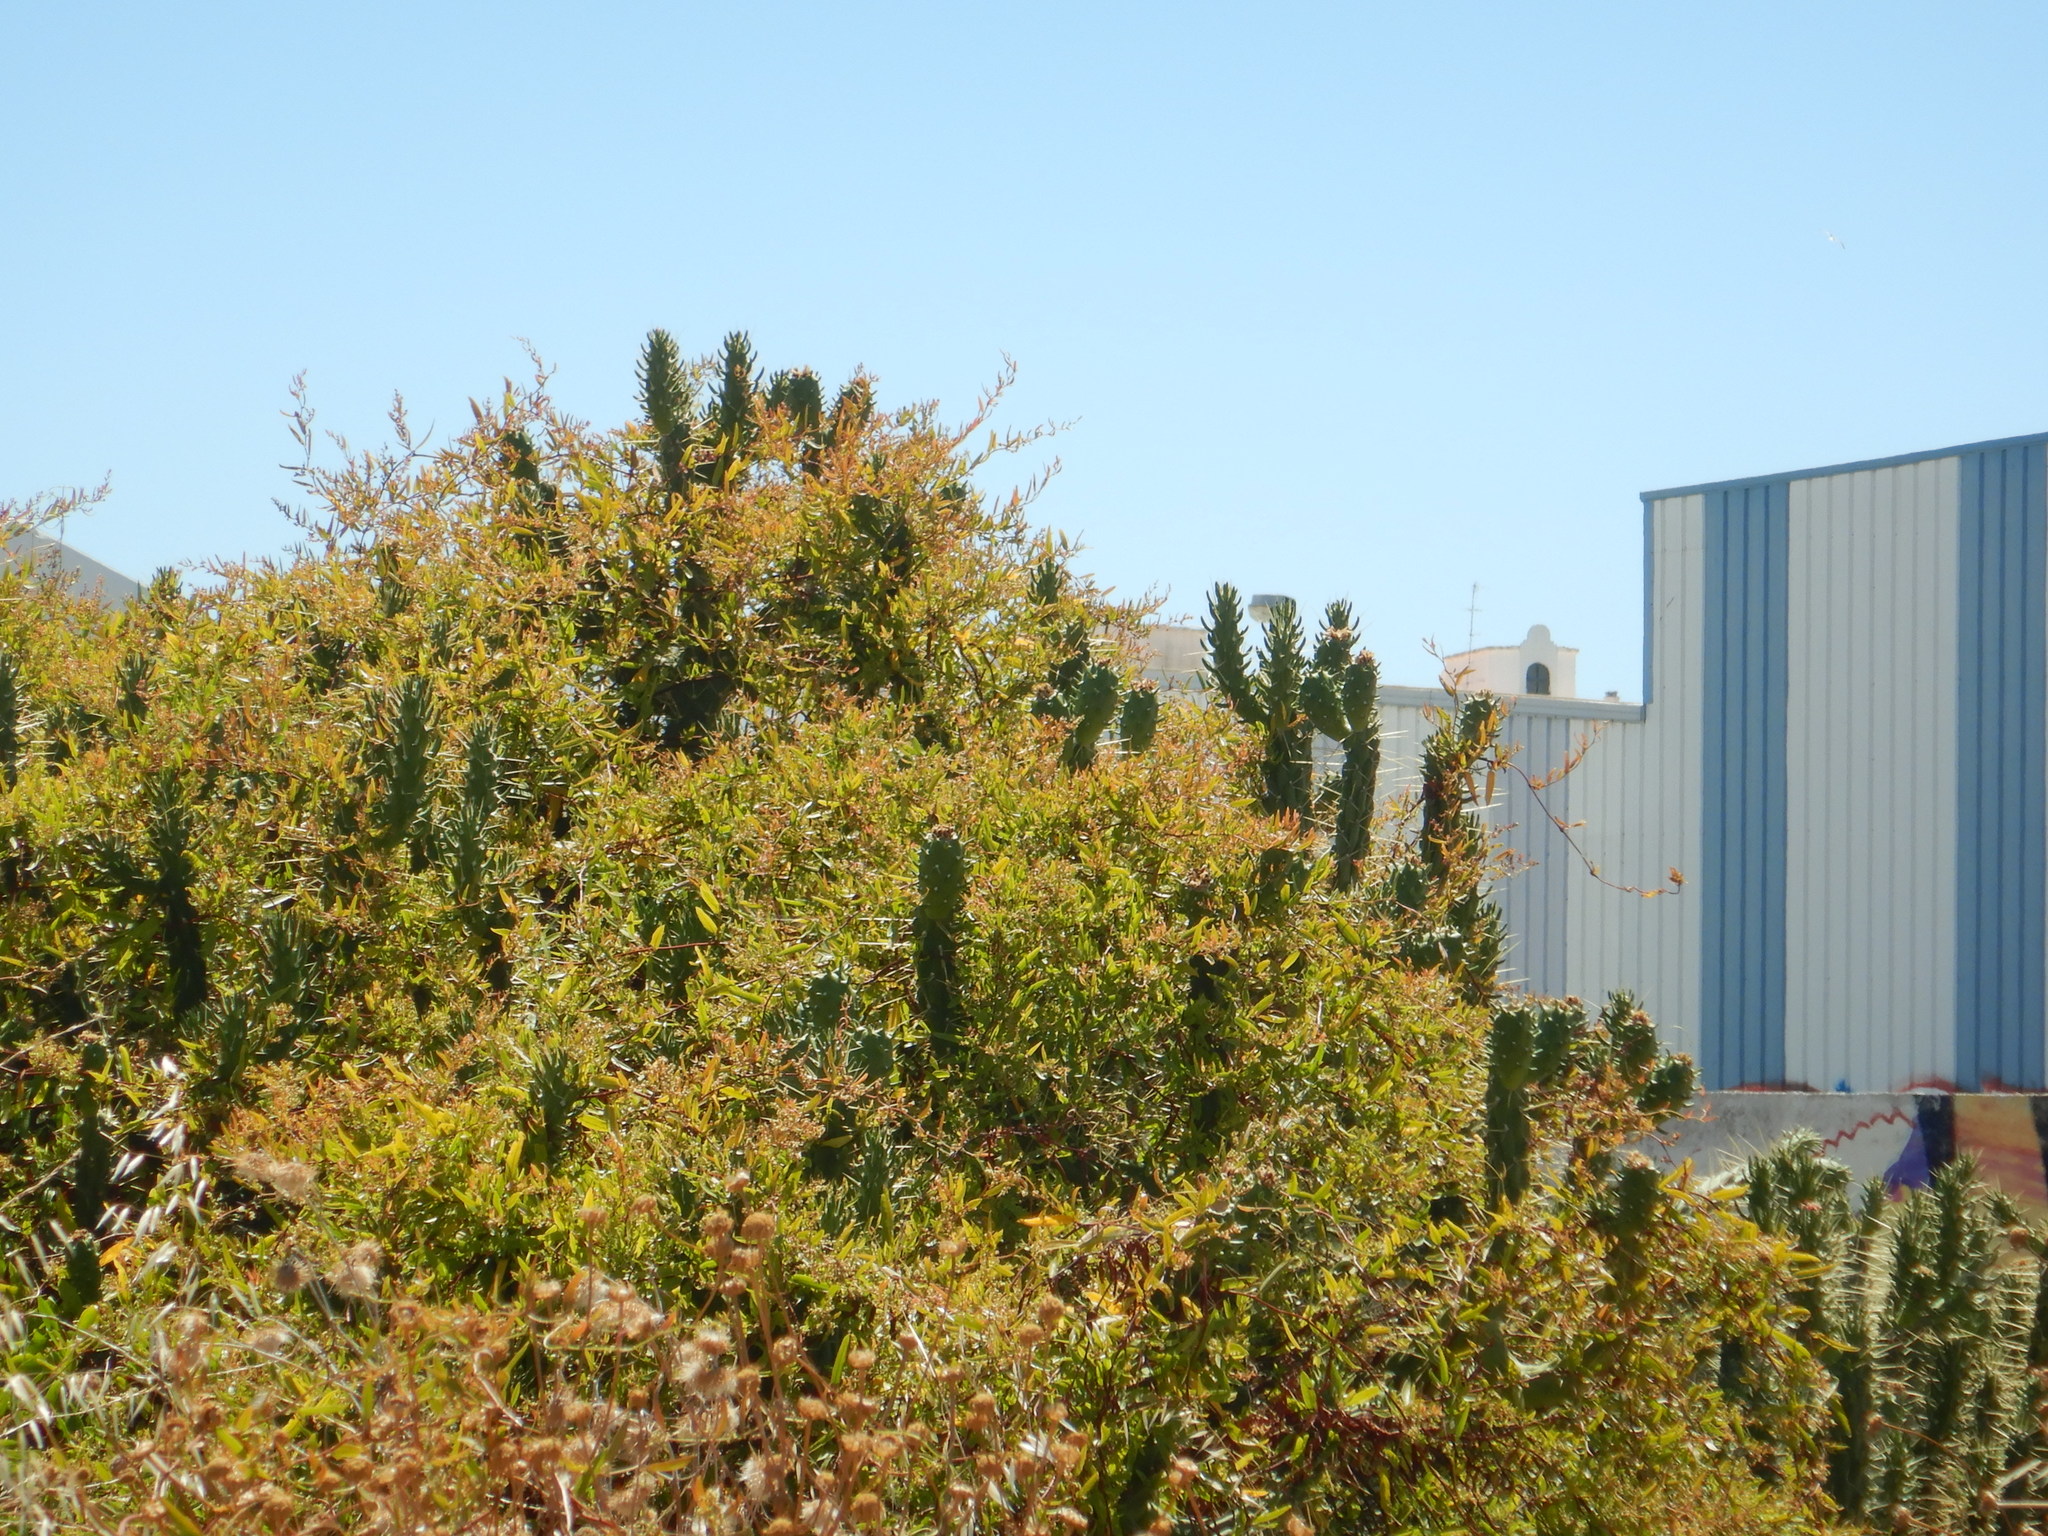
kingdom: Plantae
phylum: Tracheophyta
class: Magnoliopsida
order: Caryophyllales
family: Cactaceae
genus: Austrocylindropuntia
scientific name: Austrocylindropuntia subulata
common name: Eve's needle cactus
